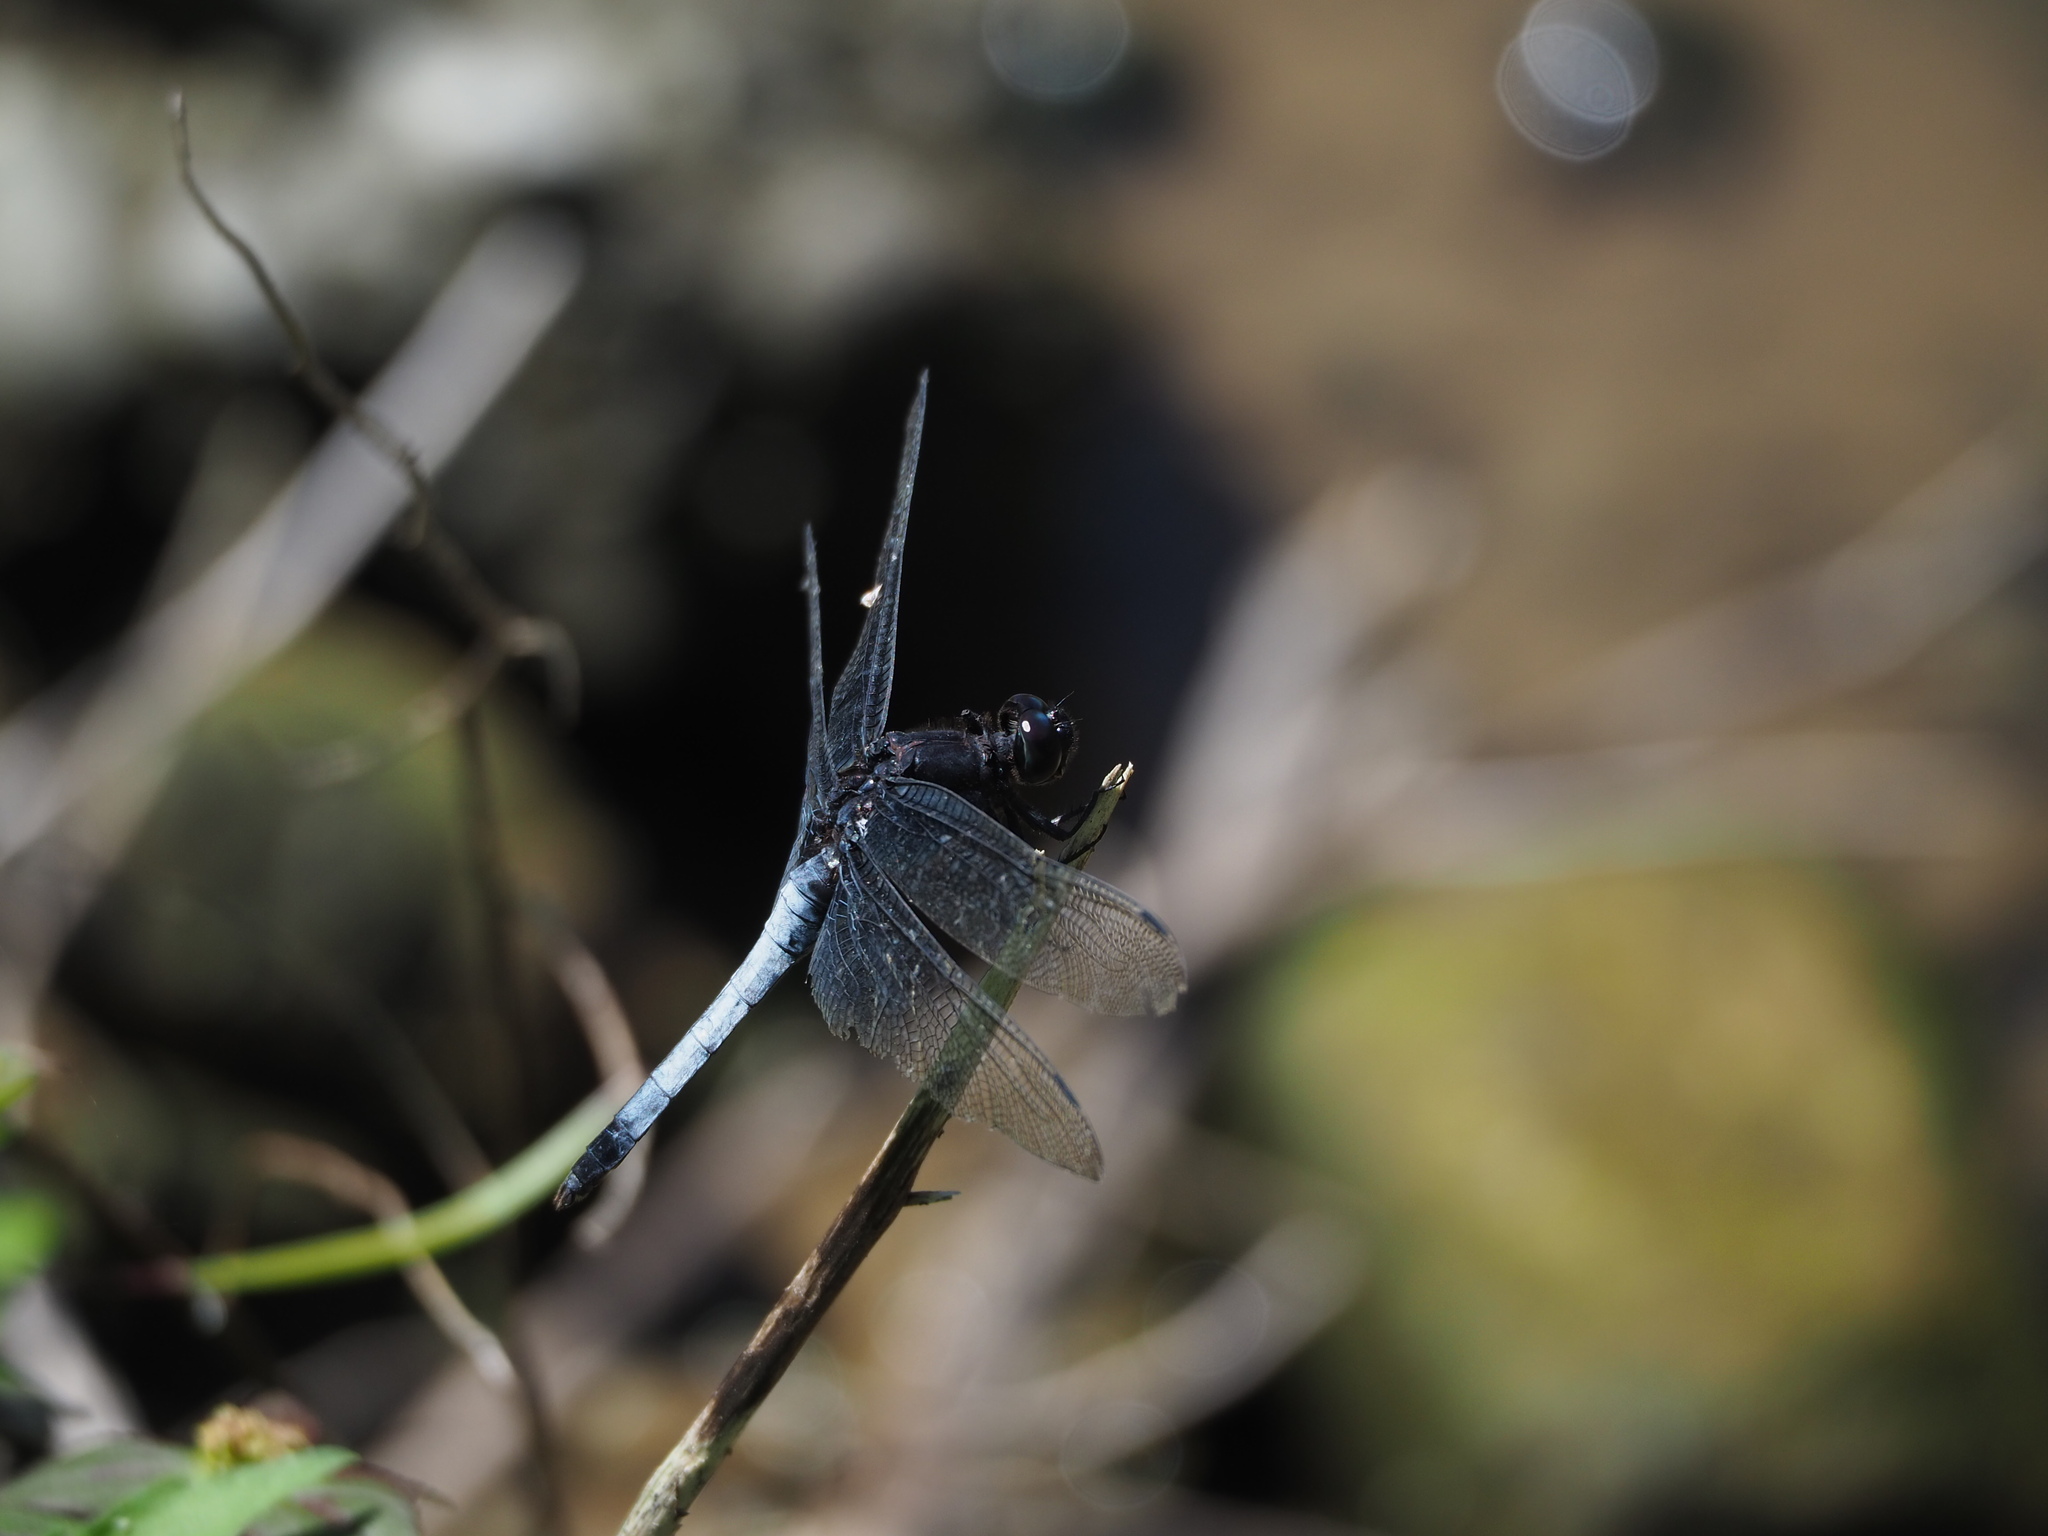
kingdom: Animalia
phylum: Arthropoda
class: Insecta
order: Odonata
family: Libellulidae
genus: Orthetrum
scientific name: Orthetrum triangulare
